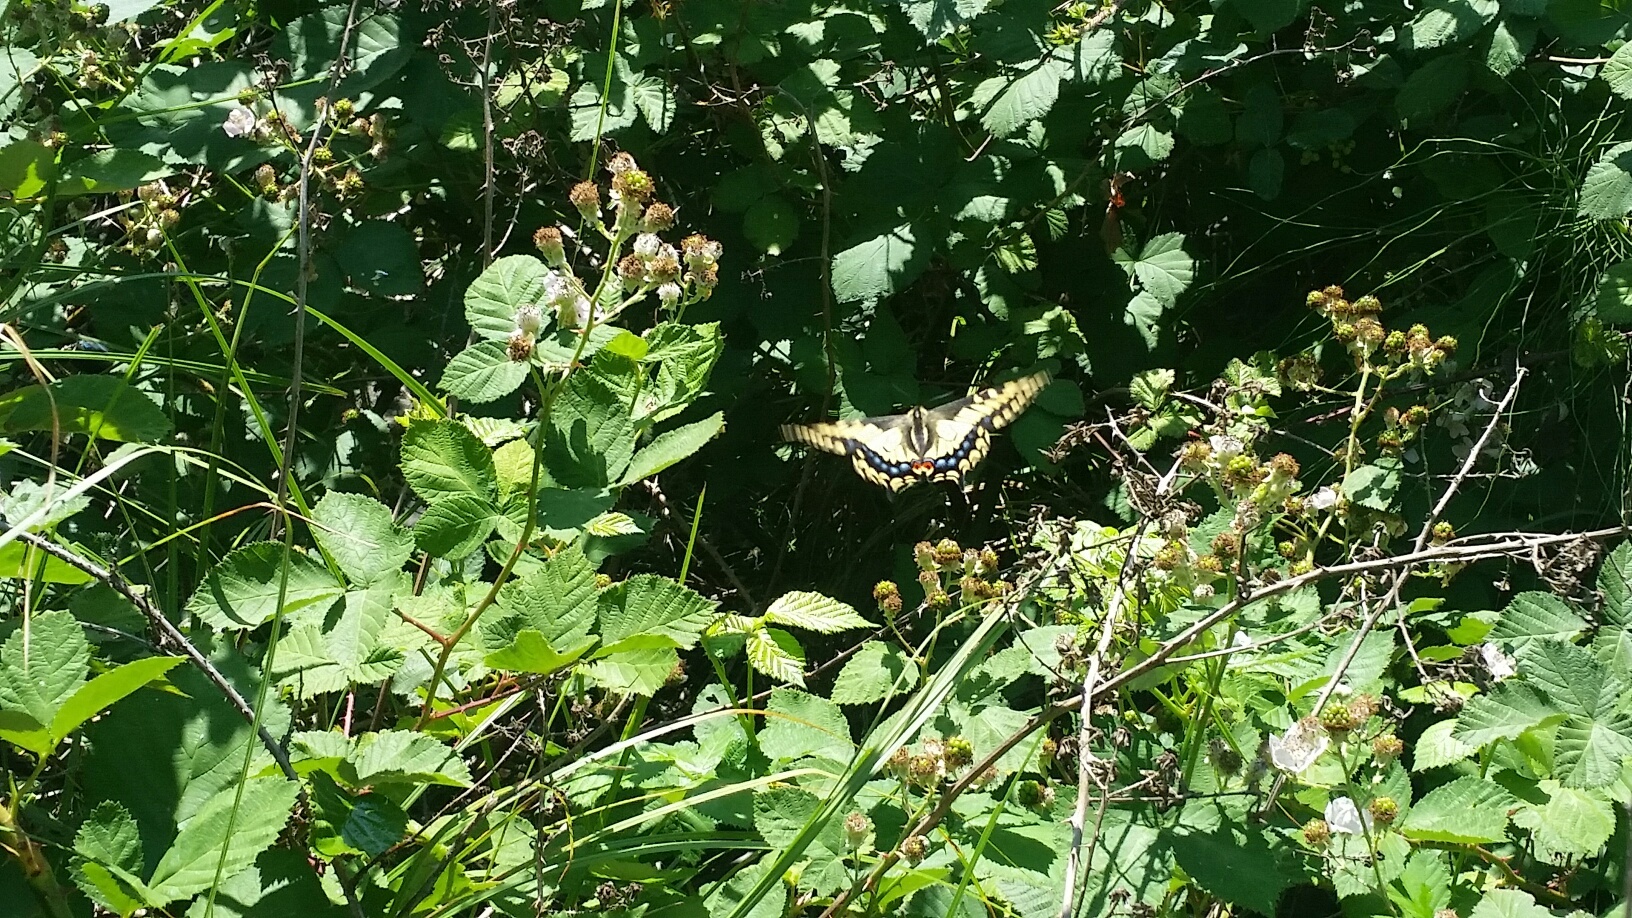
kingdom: Animalia
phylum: Arthropoda
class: Insecta
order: Lepidoptera
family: Papilionidae
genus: Papilio
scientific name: Papilio zelicaon
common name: Anise swallowtail
